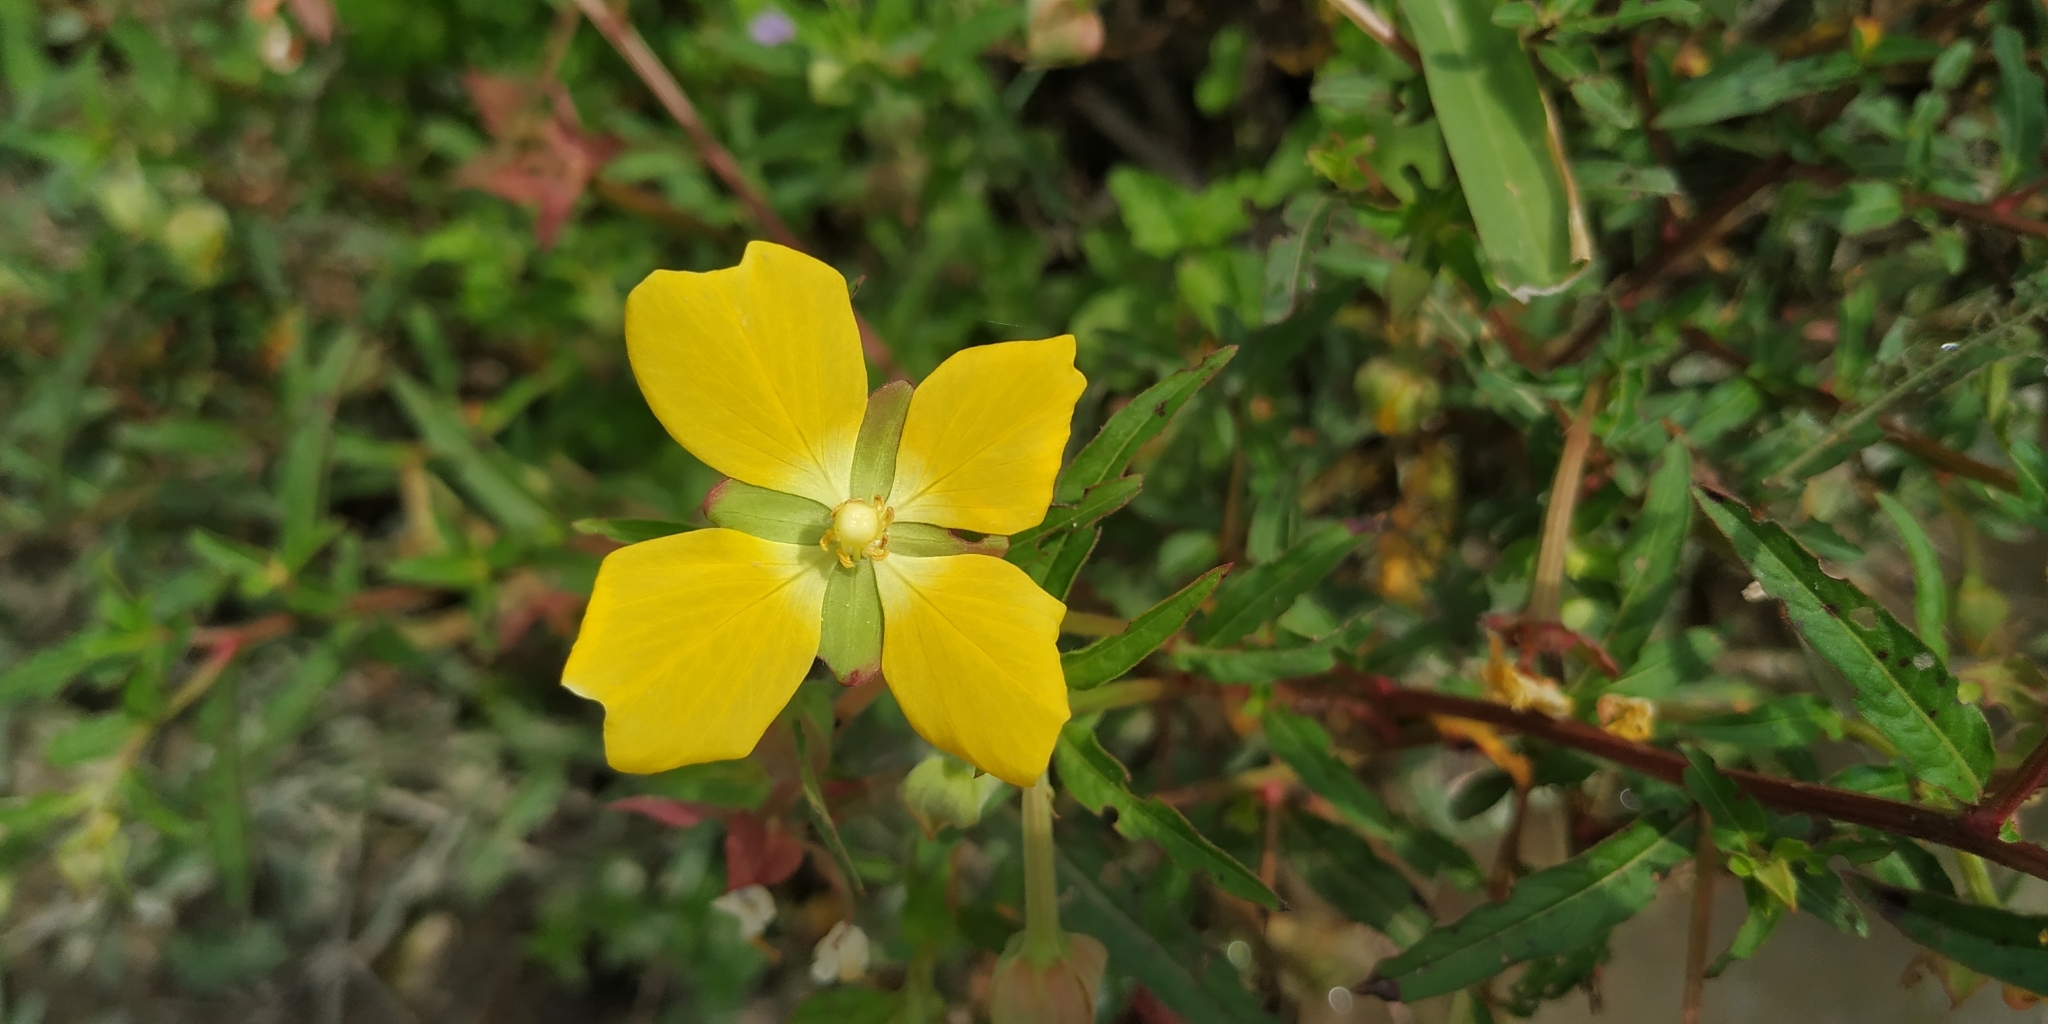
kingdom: Plantae
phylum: Tracheophyta
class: Magnoliopsida
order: Myrtales
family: Onagraceae
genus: Ludwigia
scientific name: Ludwigia octovalvis
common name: Water-primrose
